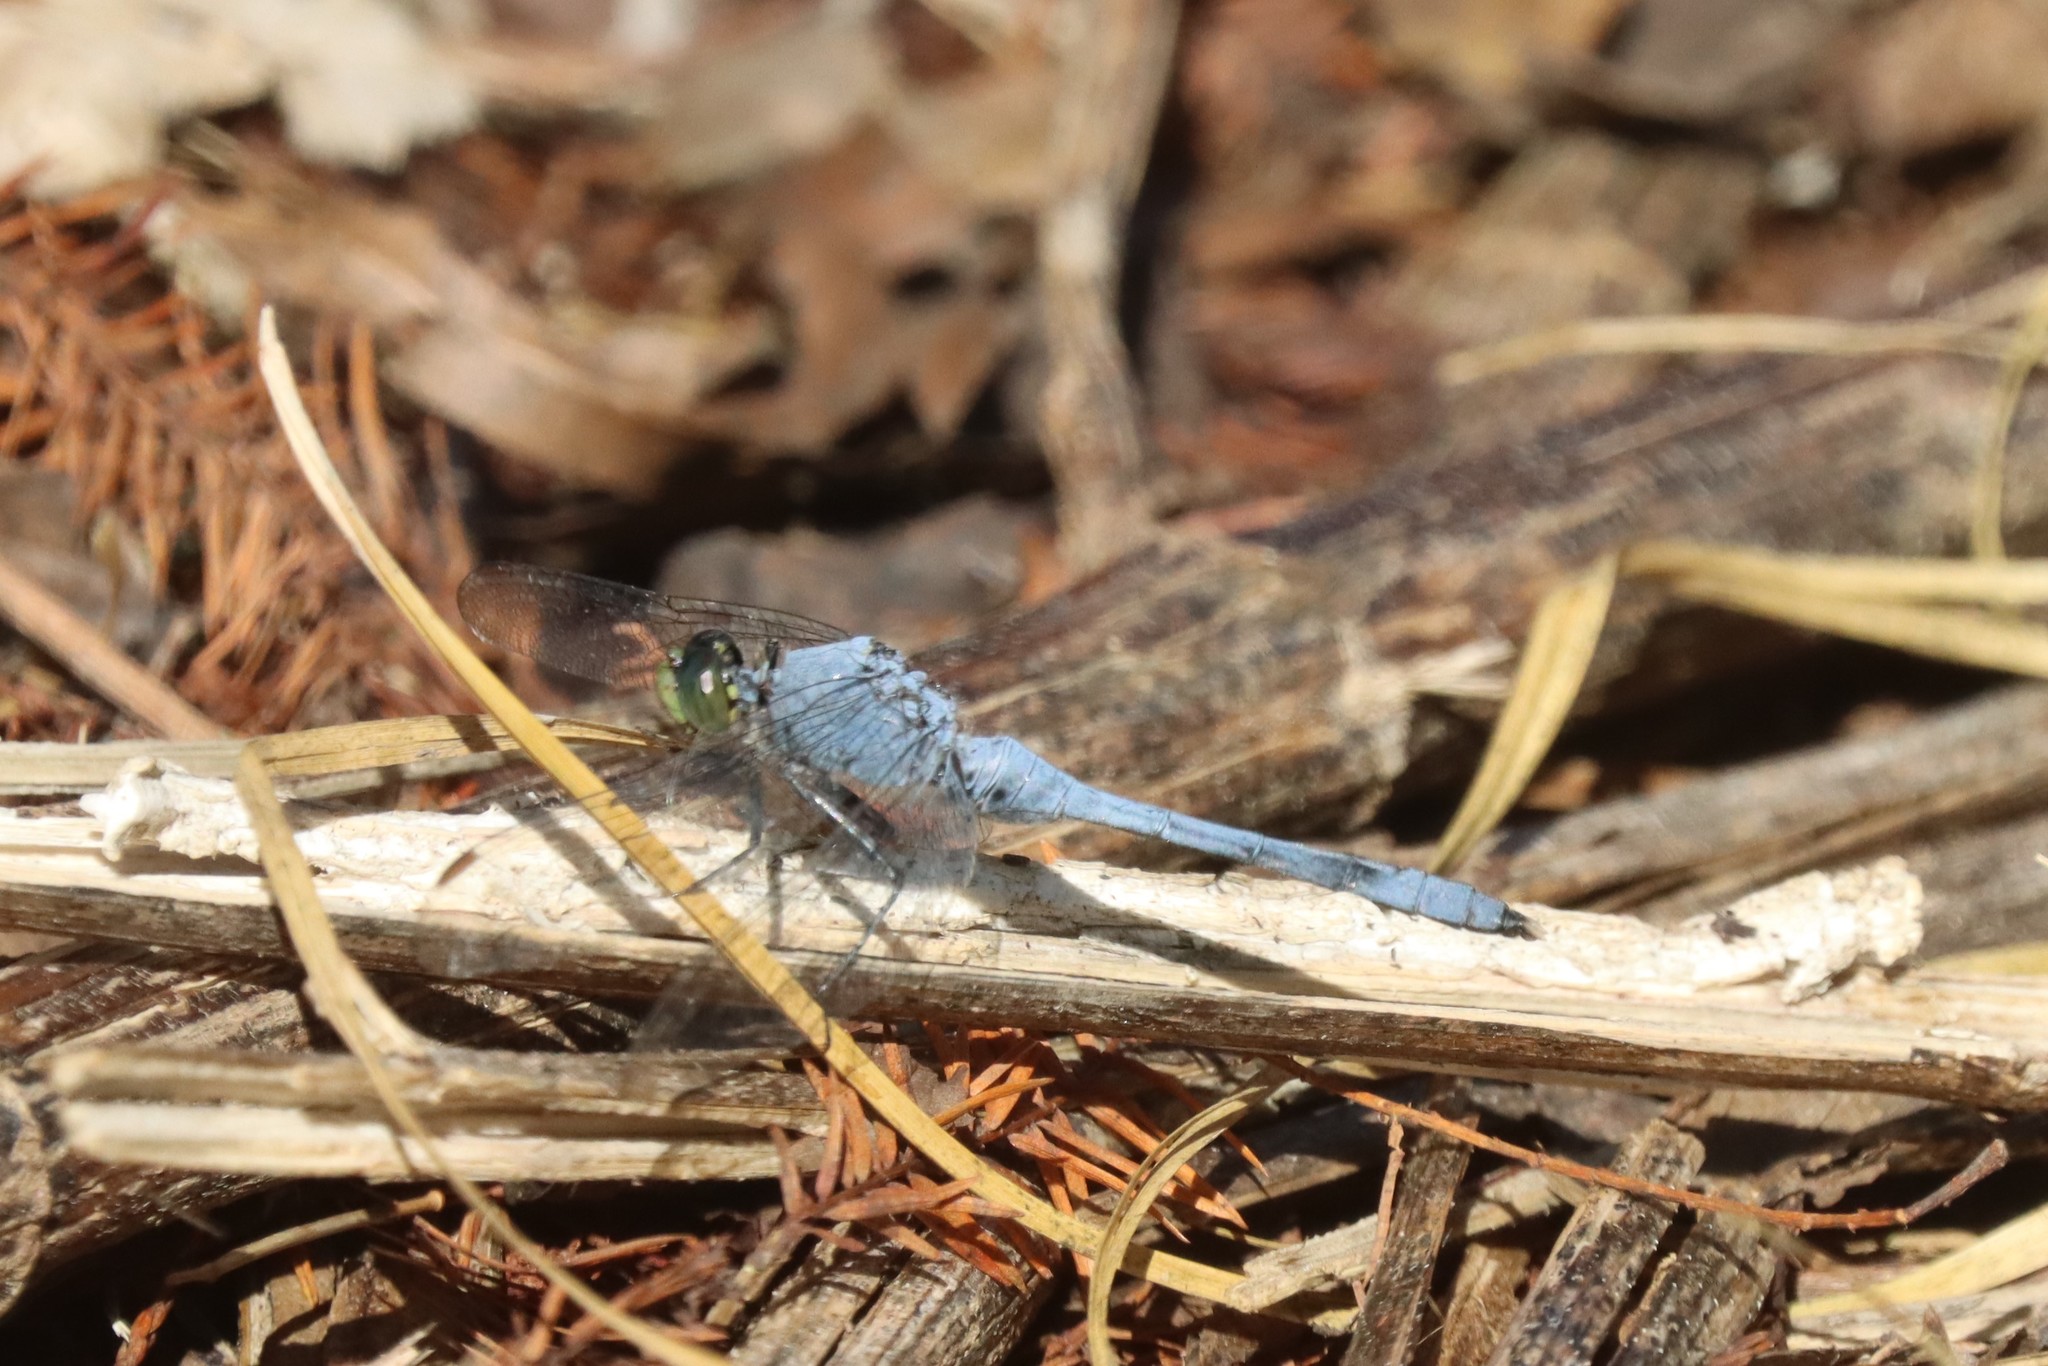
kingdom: Animalia
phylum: Arthropoda
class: Insecta
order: Odonata
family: Libellulidae
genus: Erythemis
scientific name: Erythemis simplicicollis
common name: Eastern pondhawk
